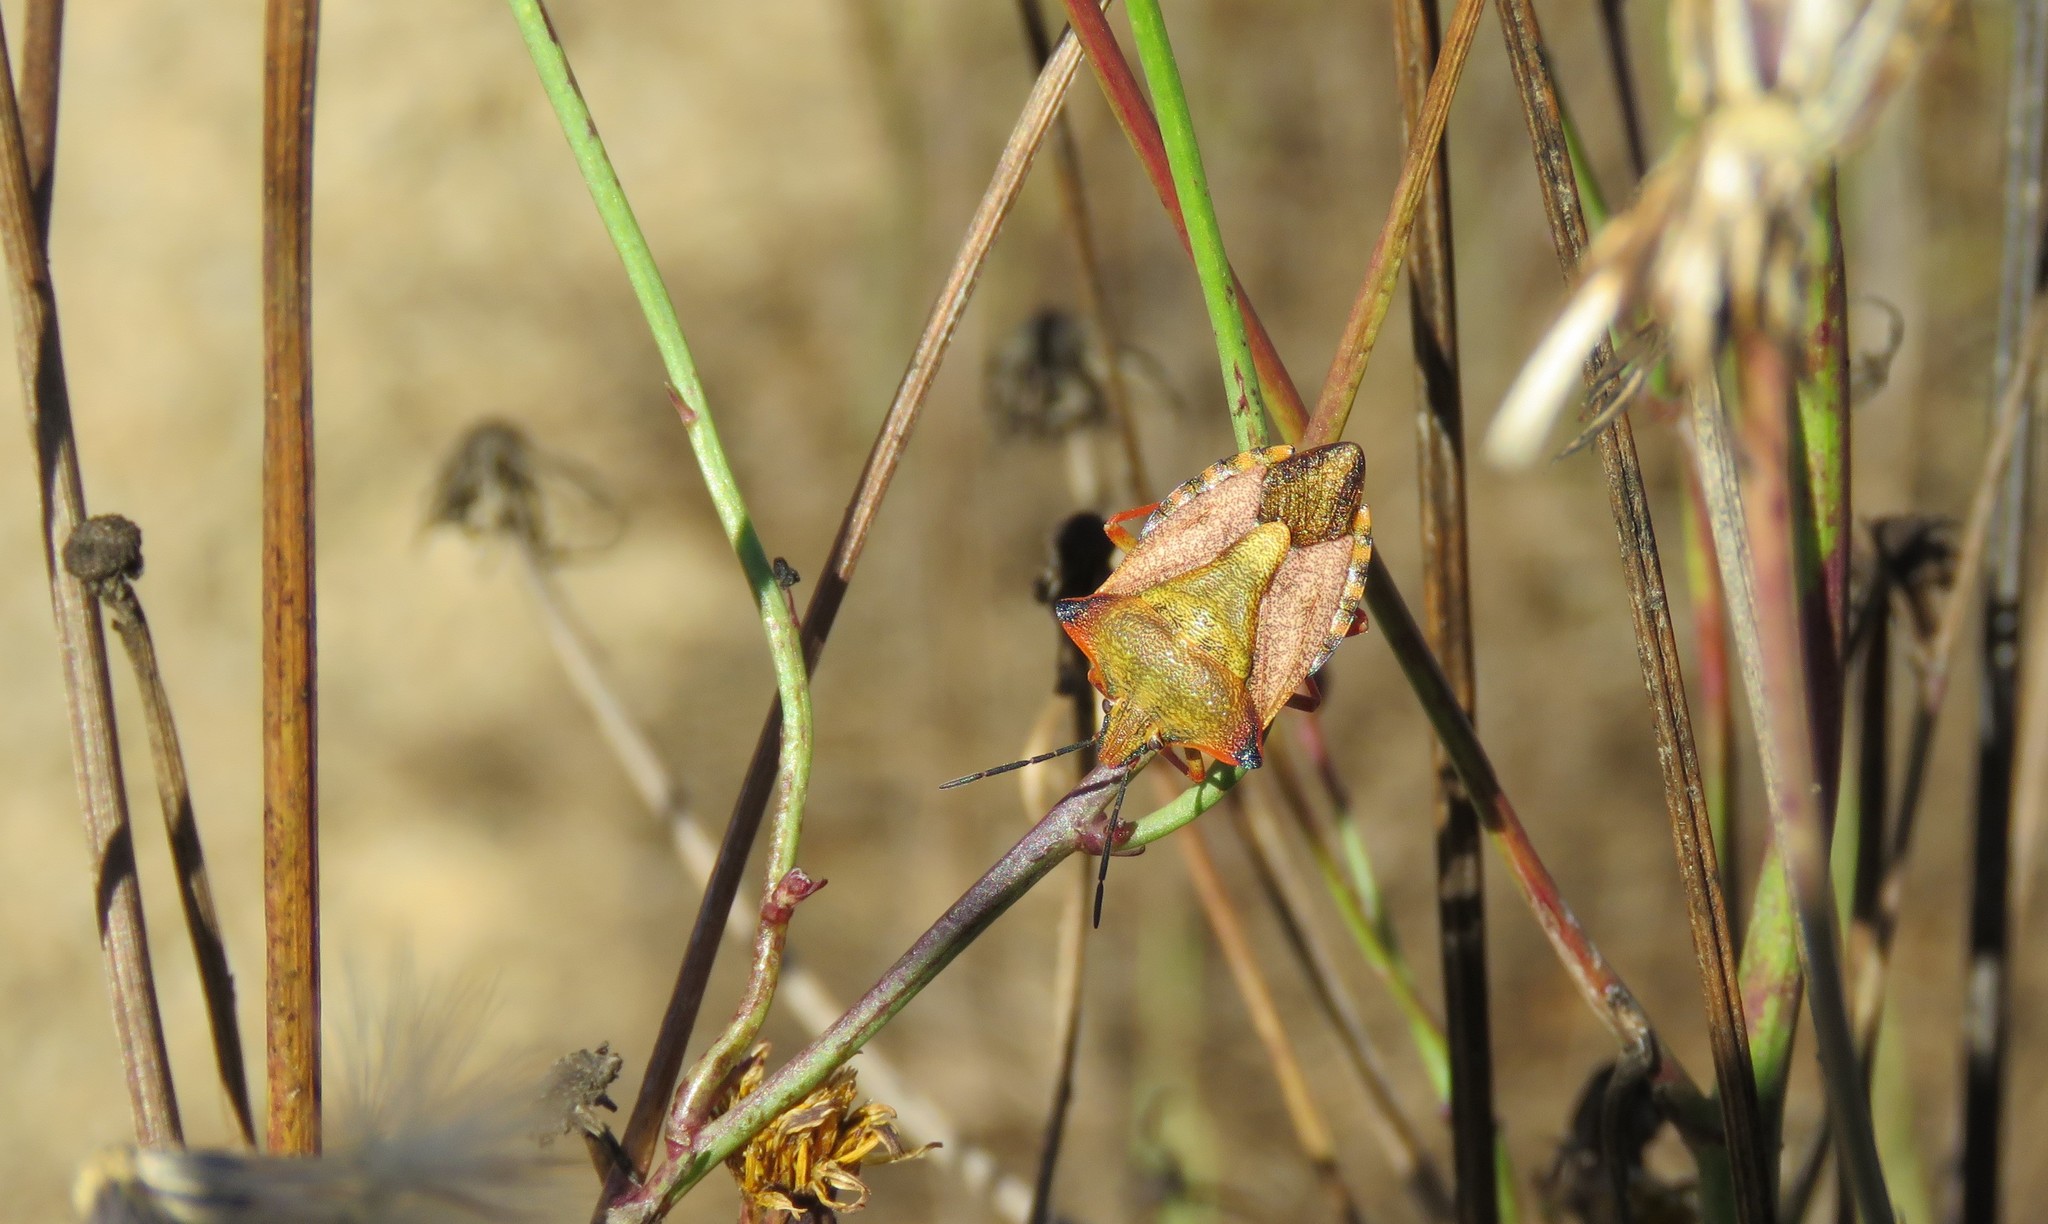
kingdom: Animalia
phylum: Arthropoda
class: Insecta
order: Hemiptera
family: Pentatomidae
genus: Carpocoris
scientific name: Carpocoris mediterraneus
